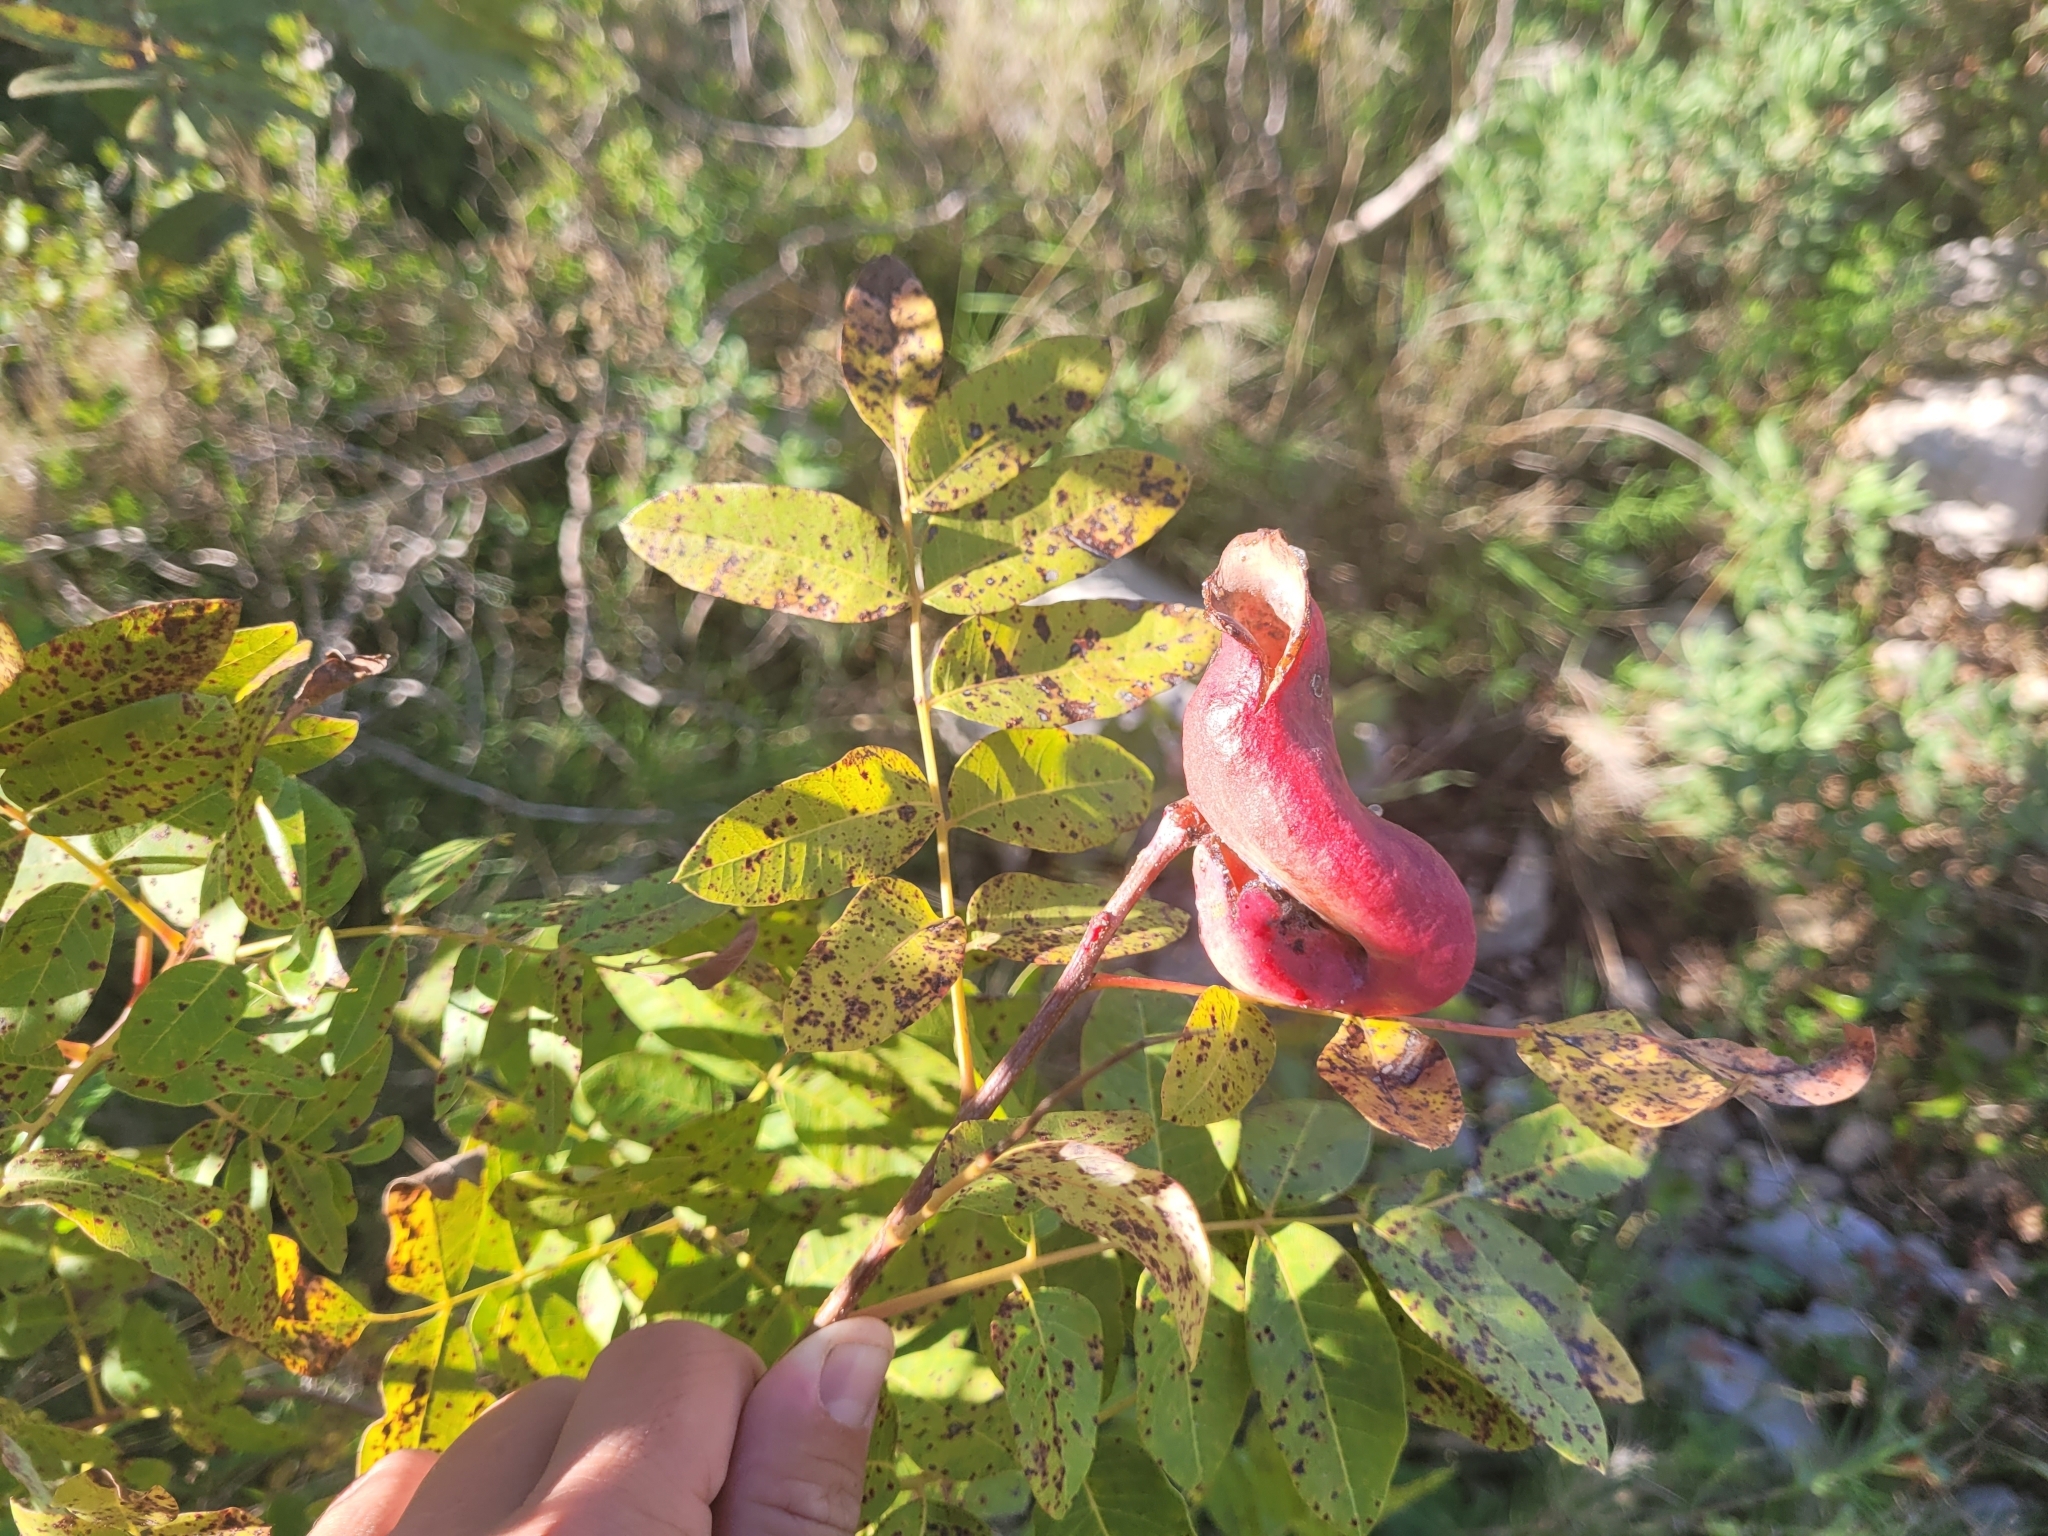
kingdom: Plantae
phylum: Tracheophyta
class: Magnoliopsida
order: Sapindales
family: Anacardiaceae
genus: Pistacia
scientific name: Pistacia terebinthus
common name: Terebinth
